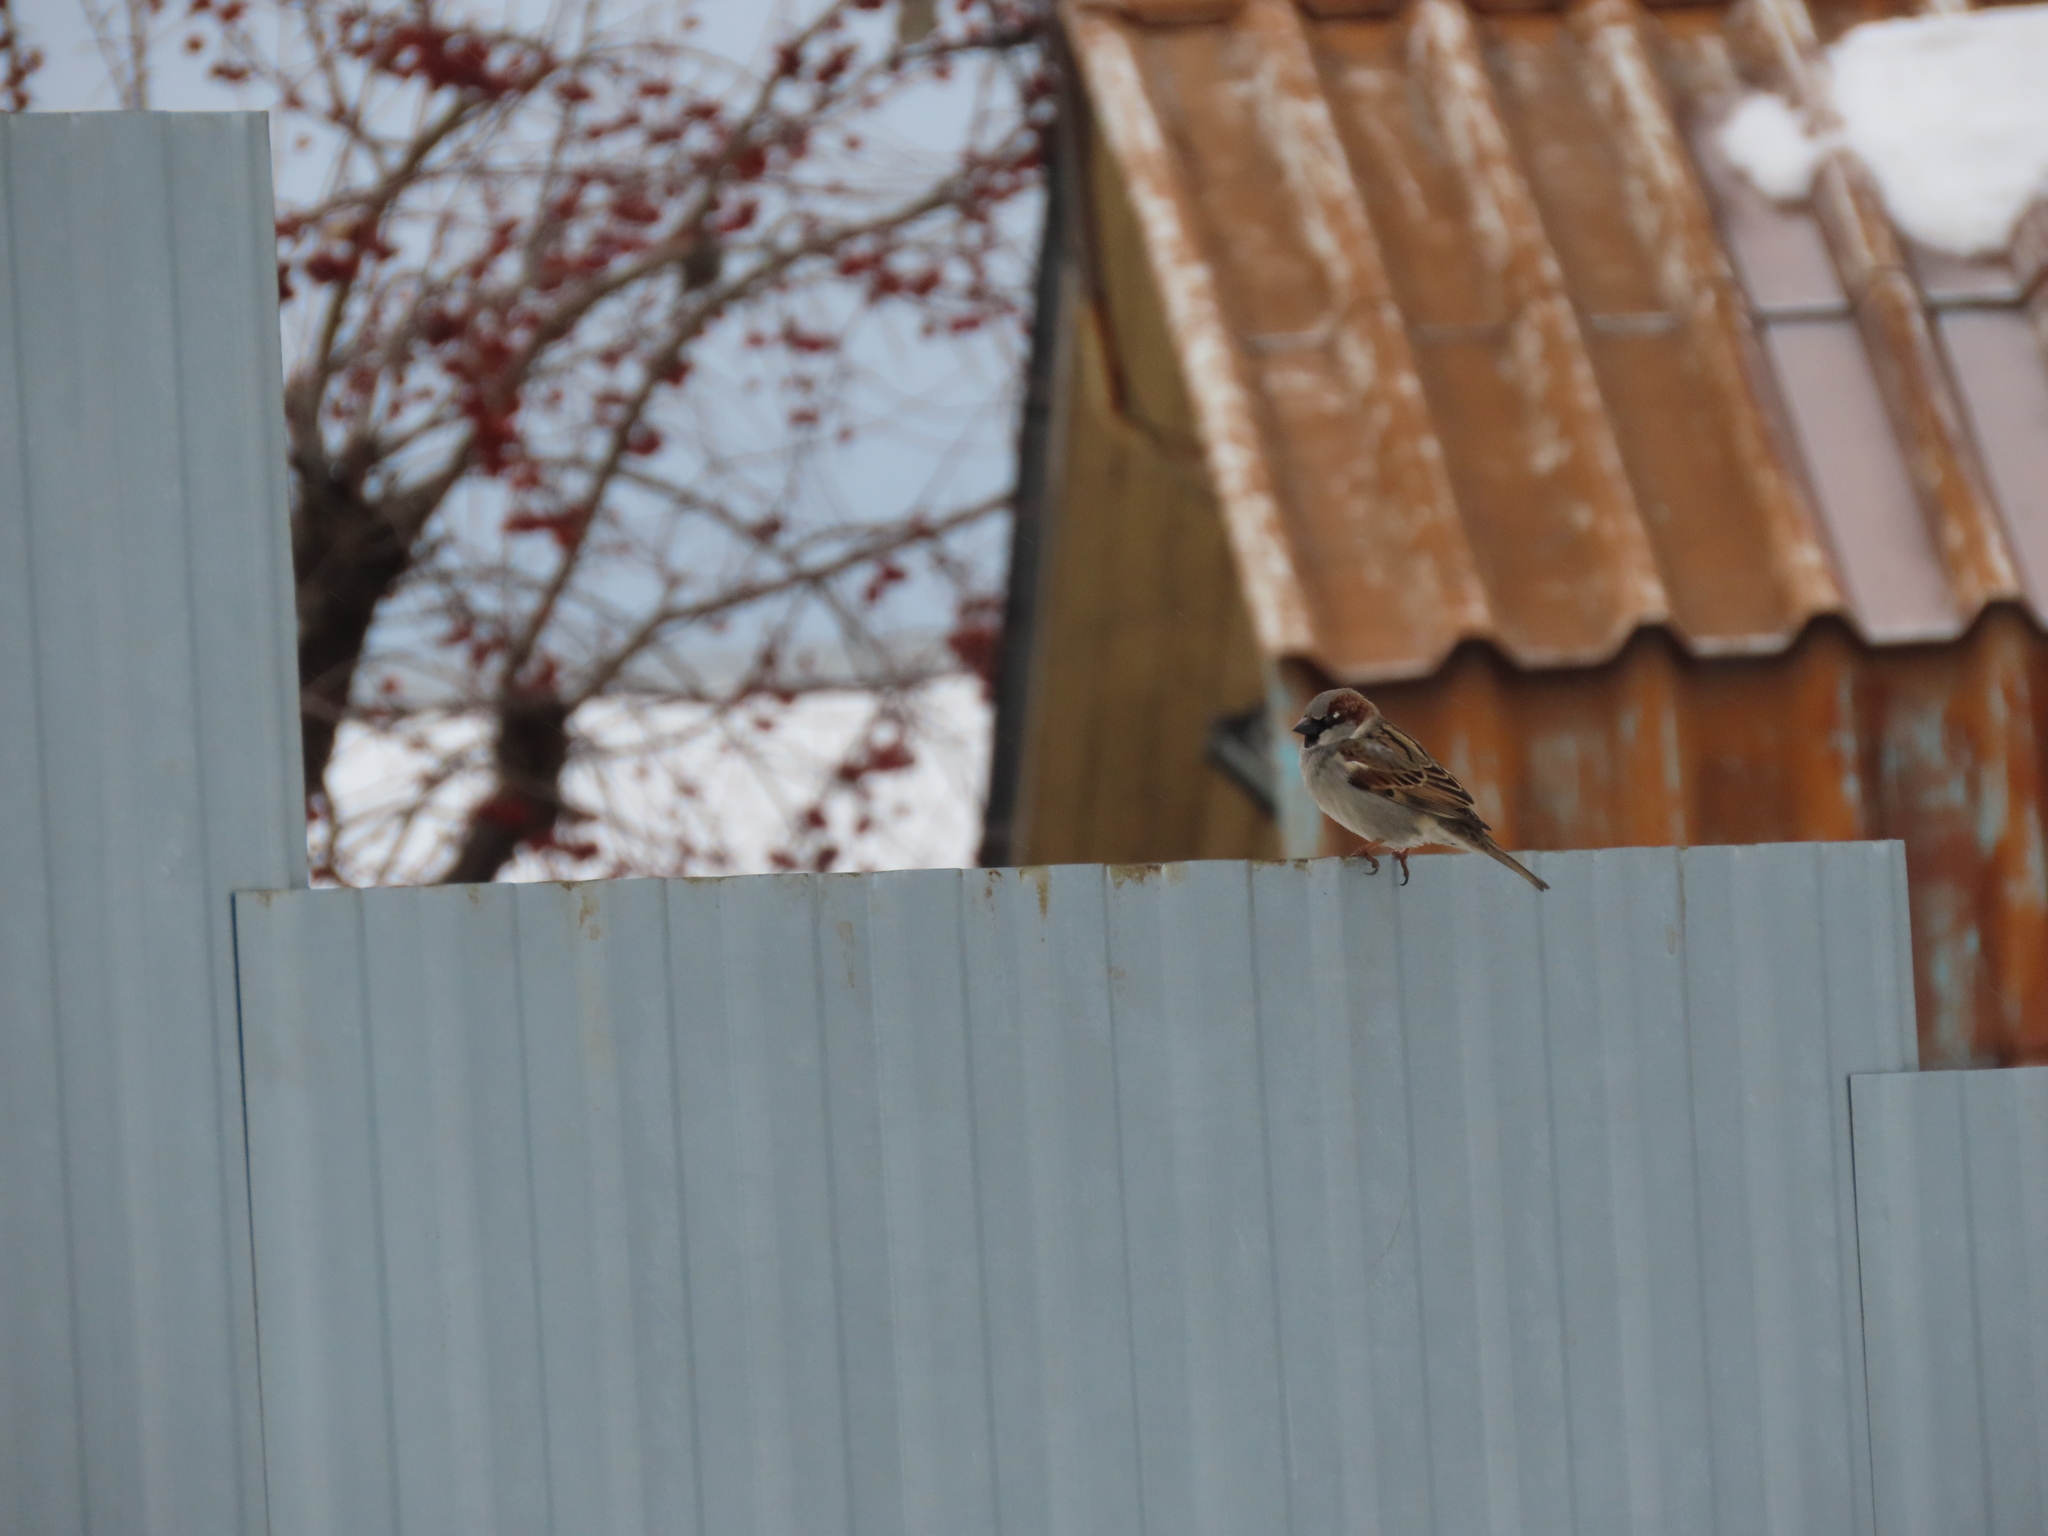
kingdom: Animalia
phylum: Chordata
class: Aves
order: Passeriformes
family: Passeridae
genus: Passer
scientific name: Passer domesticus
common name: House sparrow
